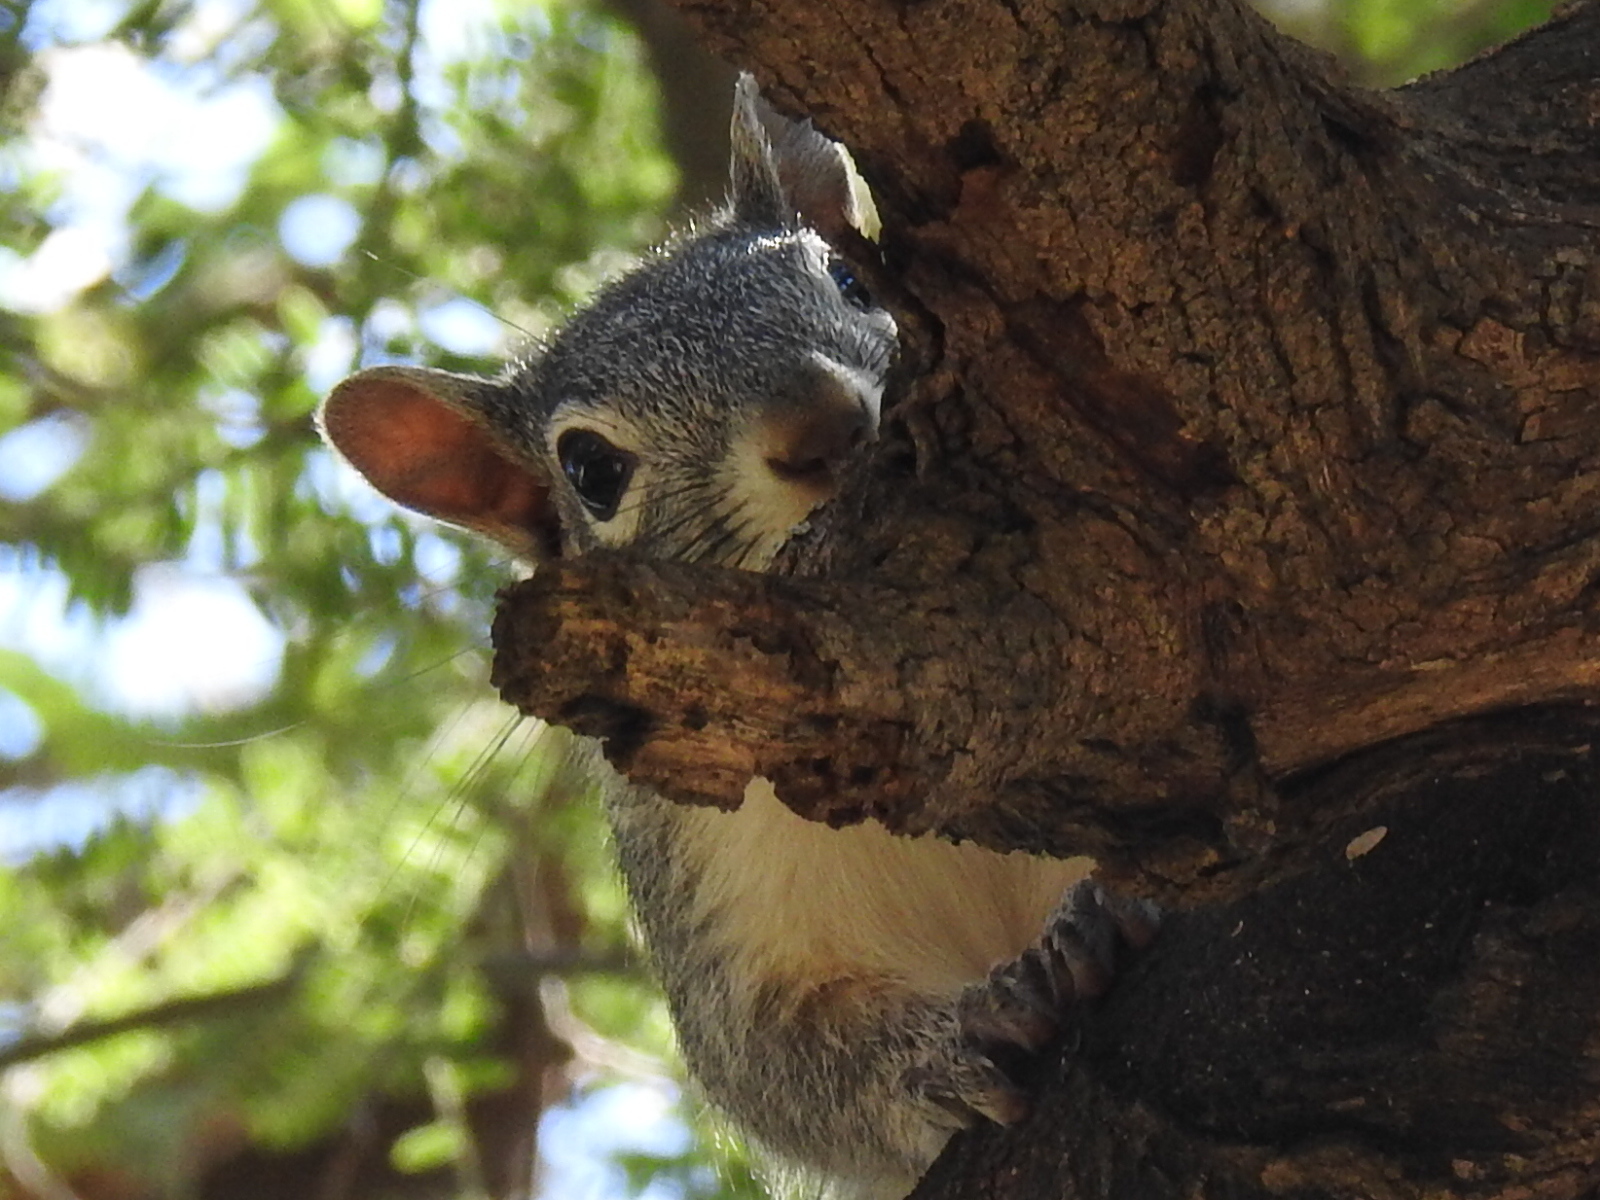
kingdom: Animalia
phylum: Chordata
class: Mammalia
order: Rodentia
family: Sciuridae
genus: Sciurus
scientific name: Sciurus arizonensis
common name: Arizona gray squirrel
